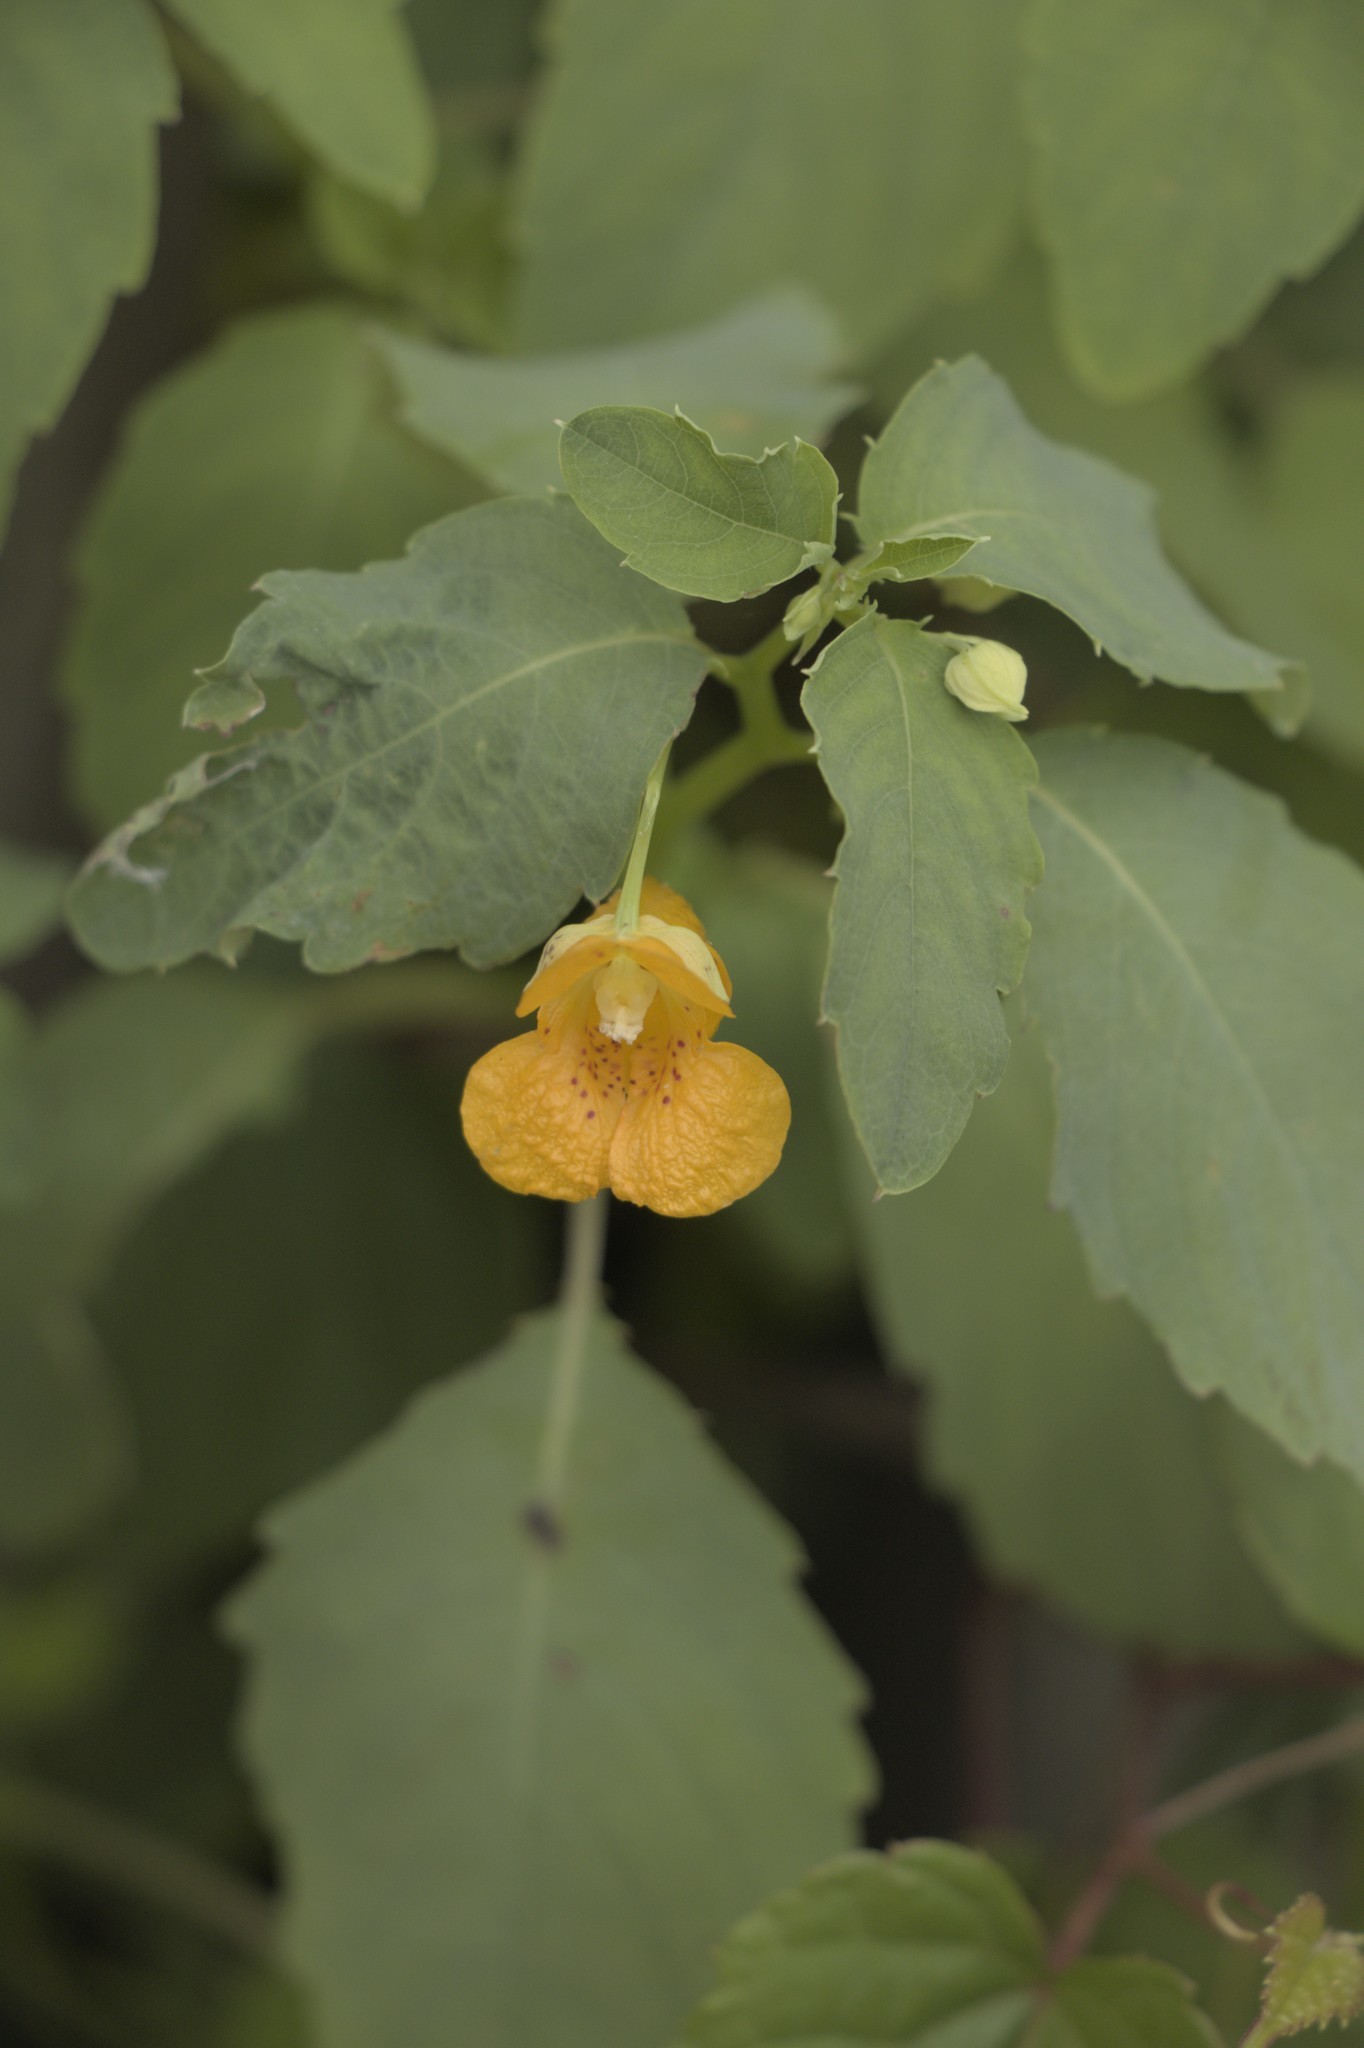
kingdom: Plantae
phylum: Tracheophyta
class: Magnoliopsida
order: Ericales
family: Balsaminaceae
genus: Impatiens
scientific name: Impatiens capensis
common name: Orange balsam
